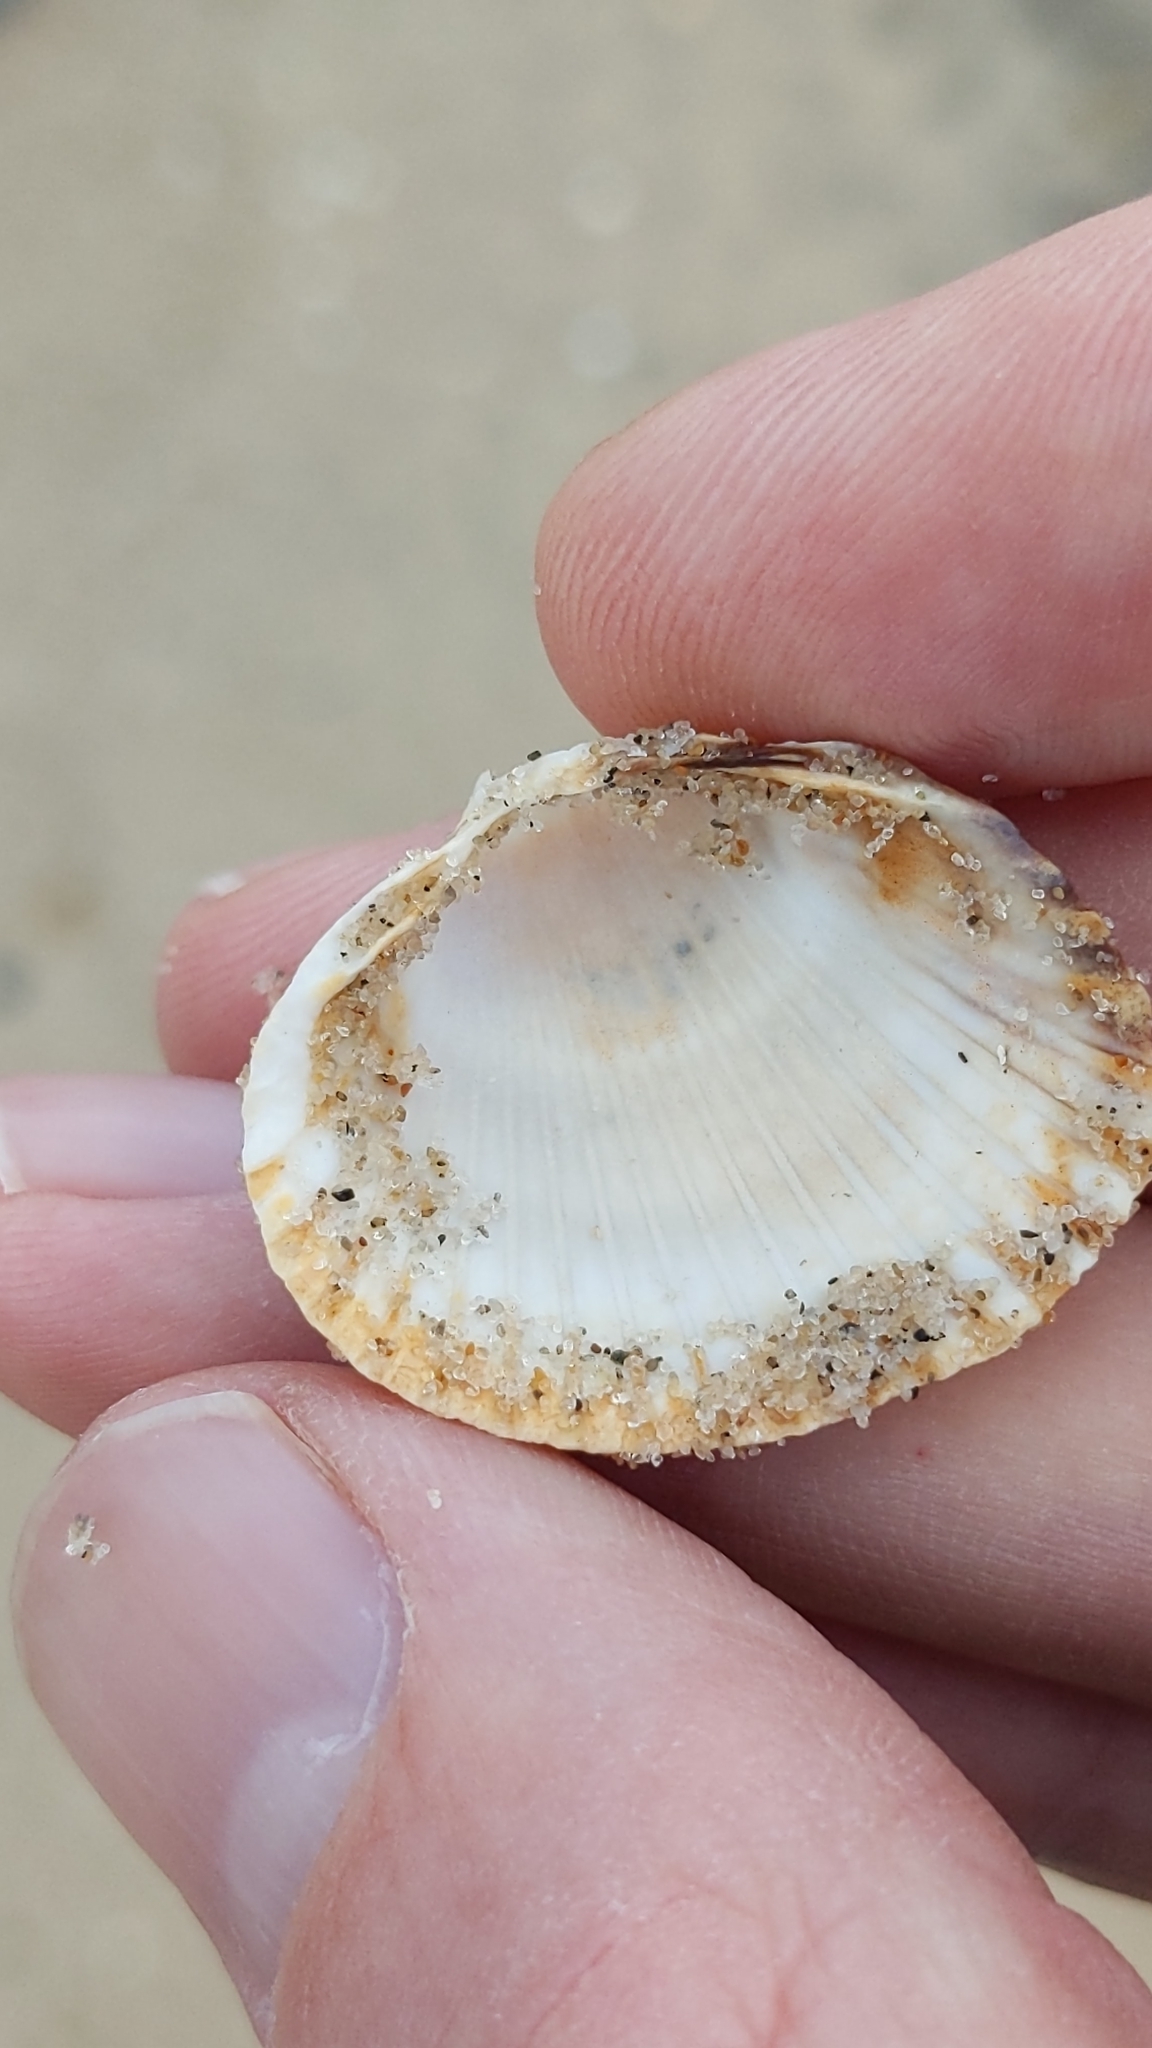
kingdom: Animalia
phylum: Mollusca
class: Bivalvia
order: Cardiida
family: Cardiidae
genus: Cerastoderma
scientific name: Cerastoderma edule
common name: Common cockle
